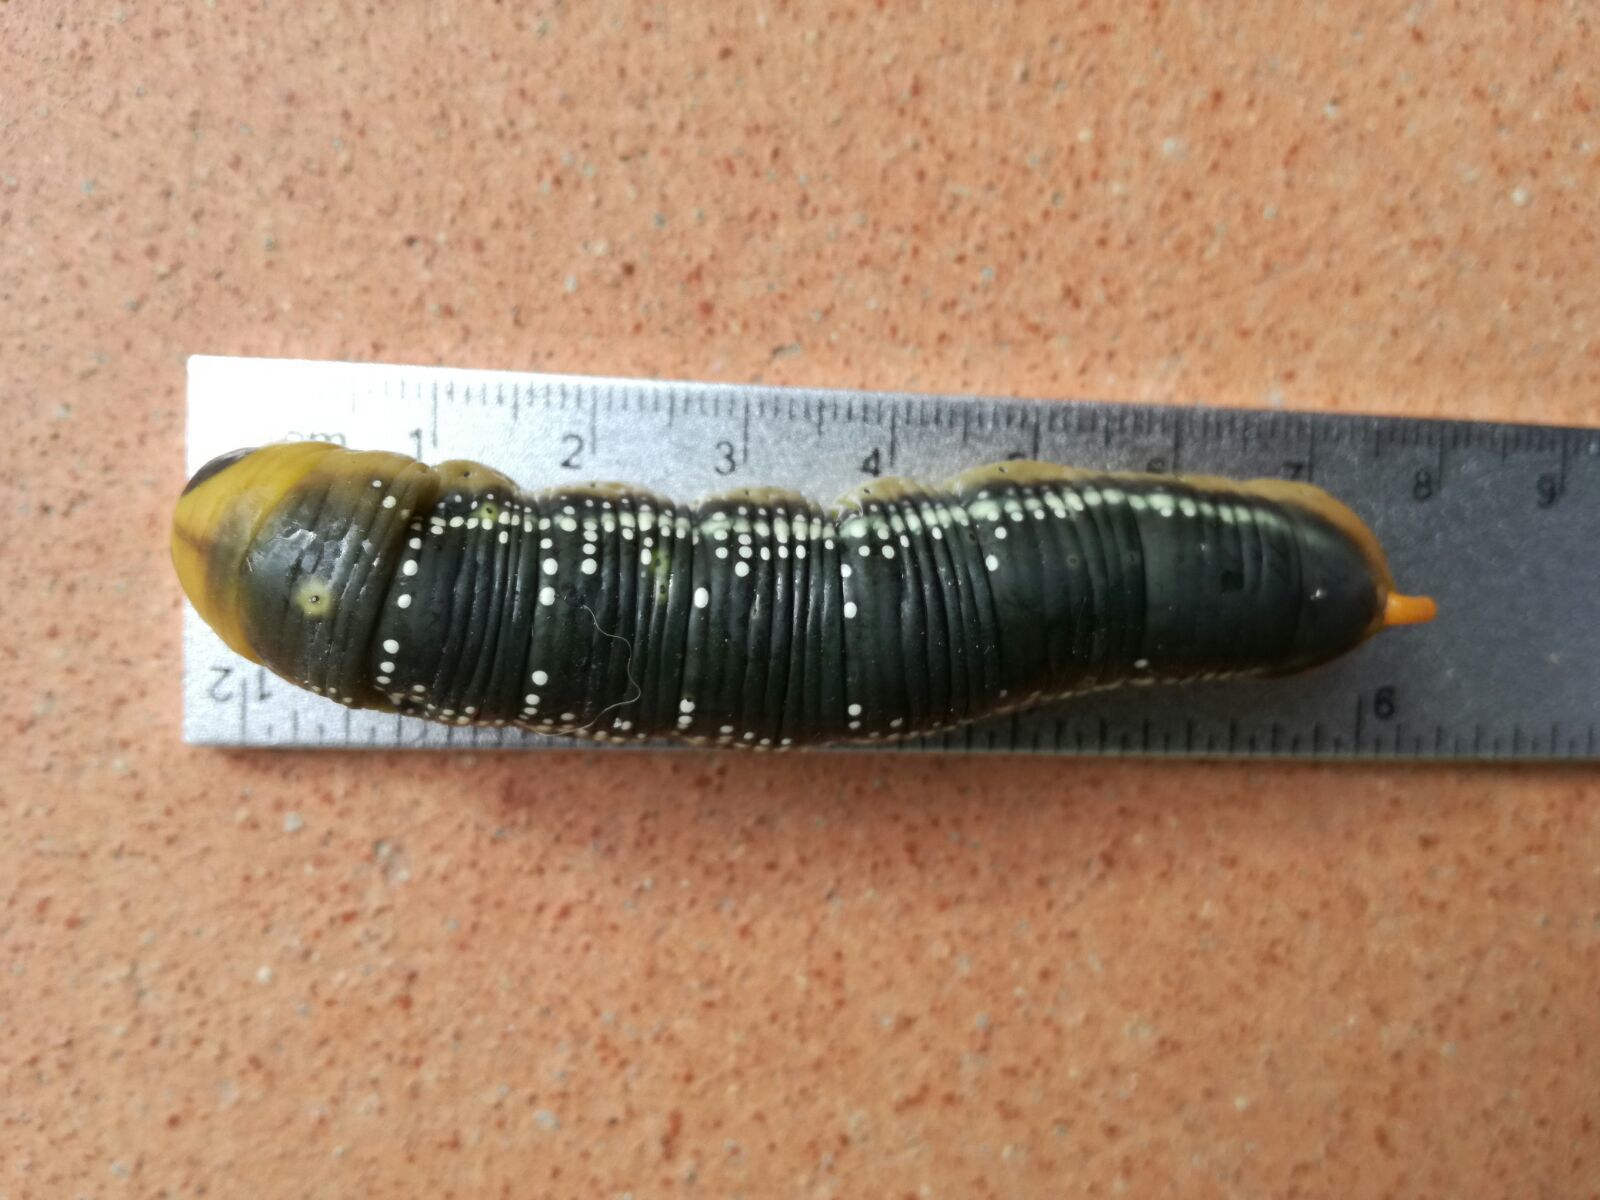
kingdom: Animalia
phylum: Arthropoda
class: Insecta
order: Lepidoptera
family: Sphingidae
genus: Daphnis
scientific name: Daphnis nerii
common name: Oleander hawk-moth
